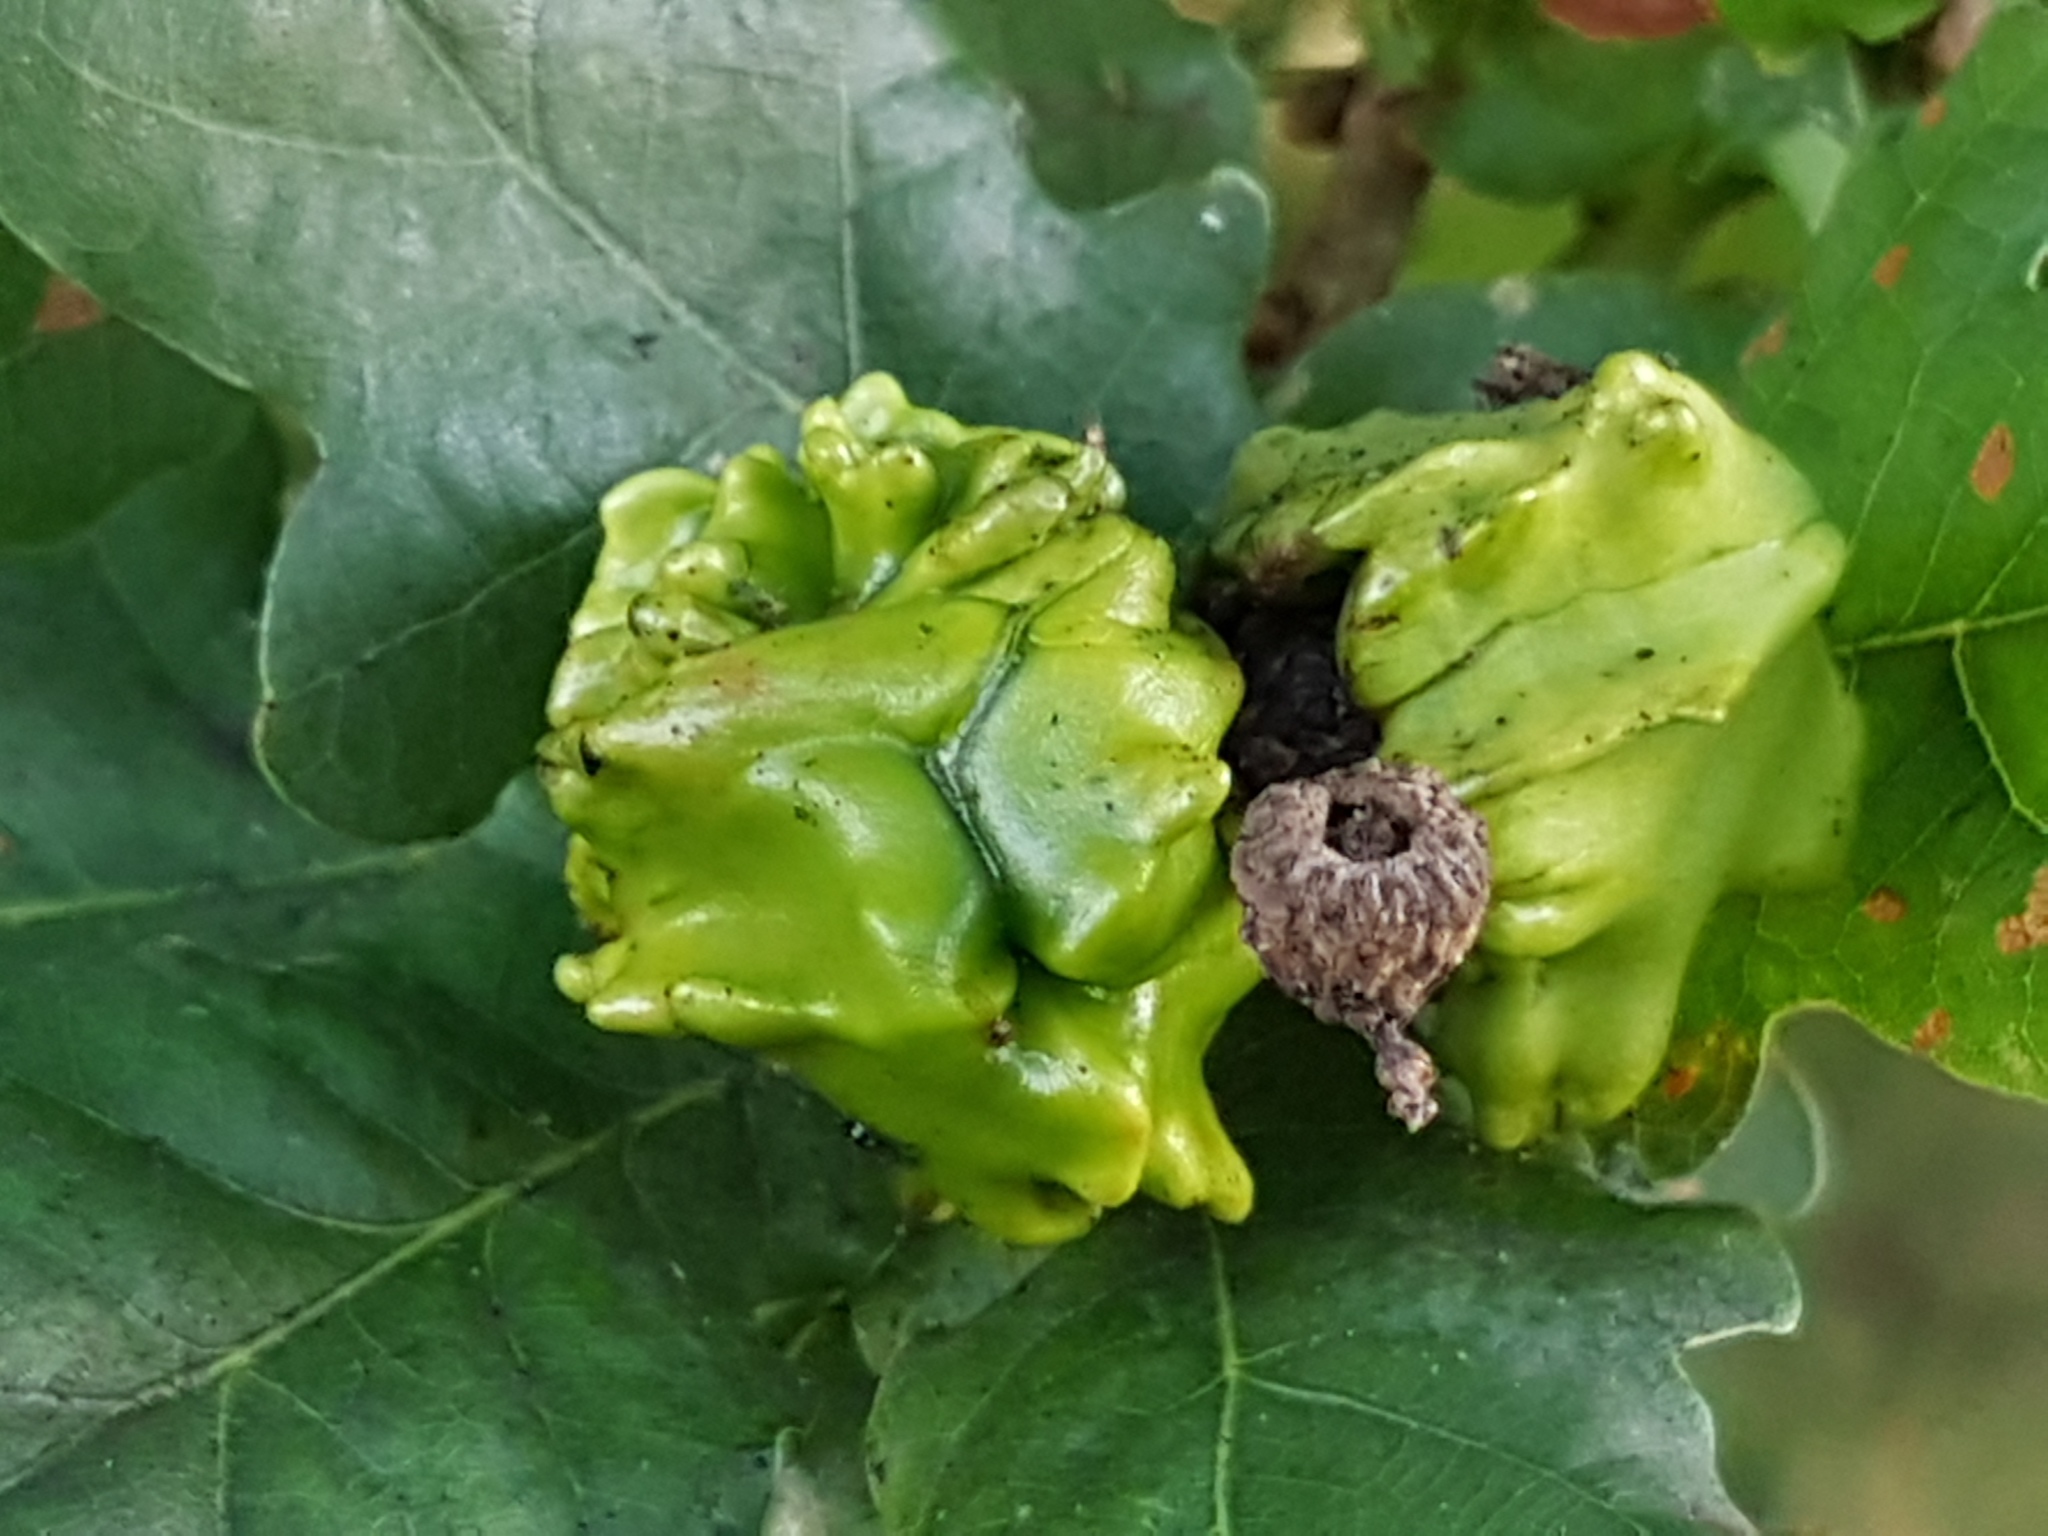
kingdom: Animalia
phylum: Arthropoda
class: Insecta
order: Hymenoptera
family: Cynipidae
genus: Andricus
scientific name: Andricus quercuscalicis
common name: Knopper gall
